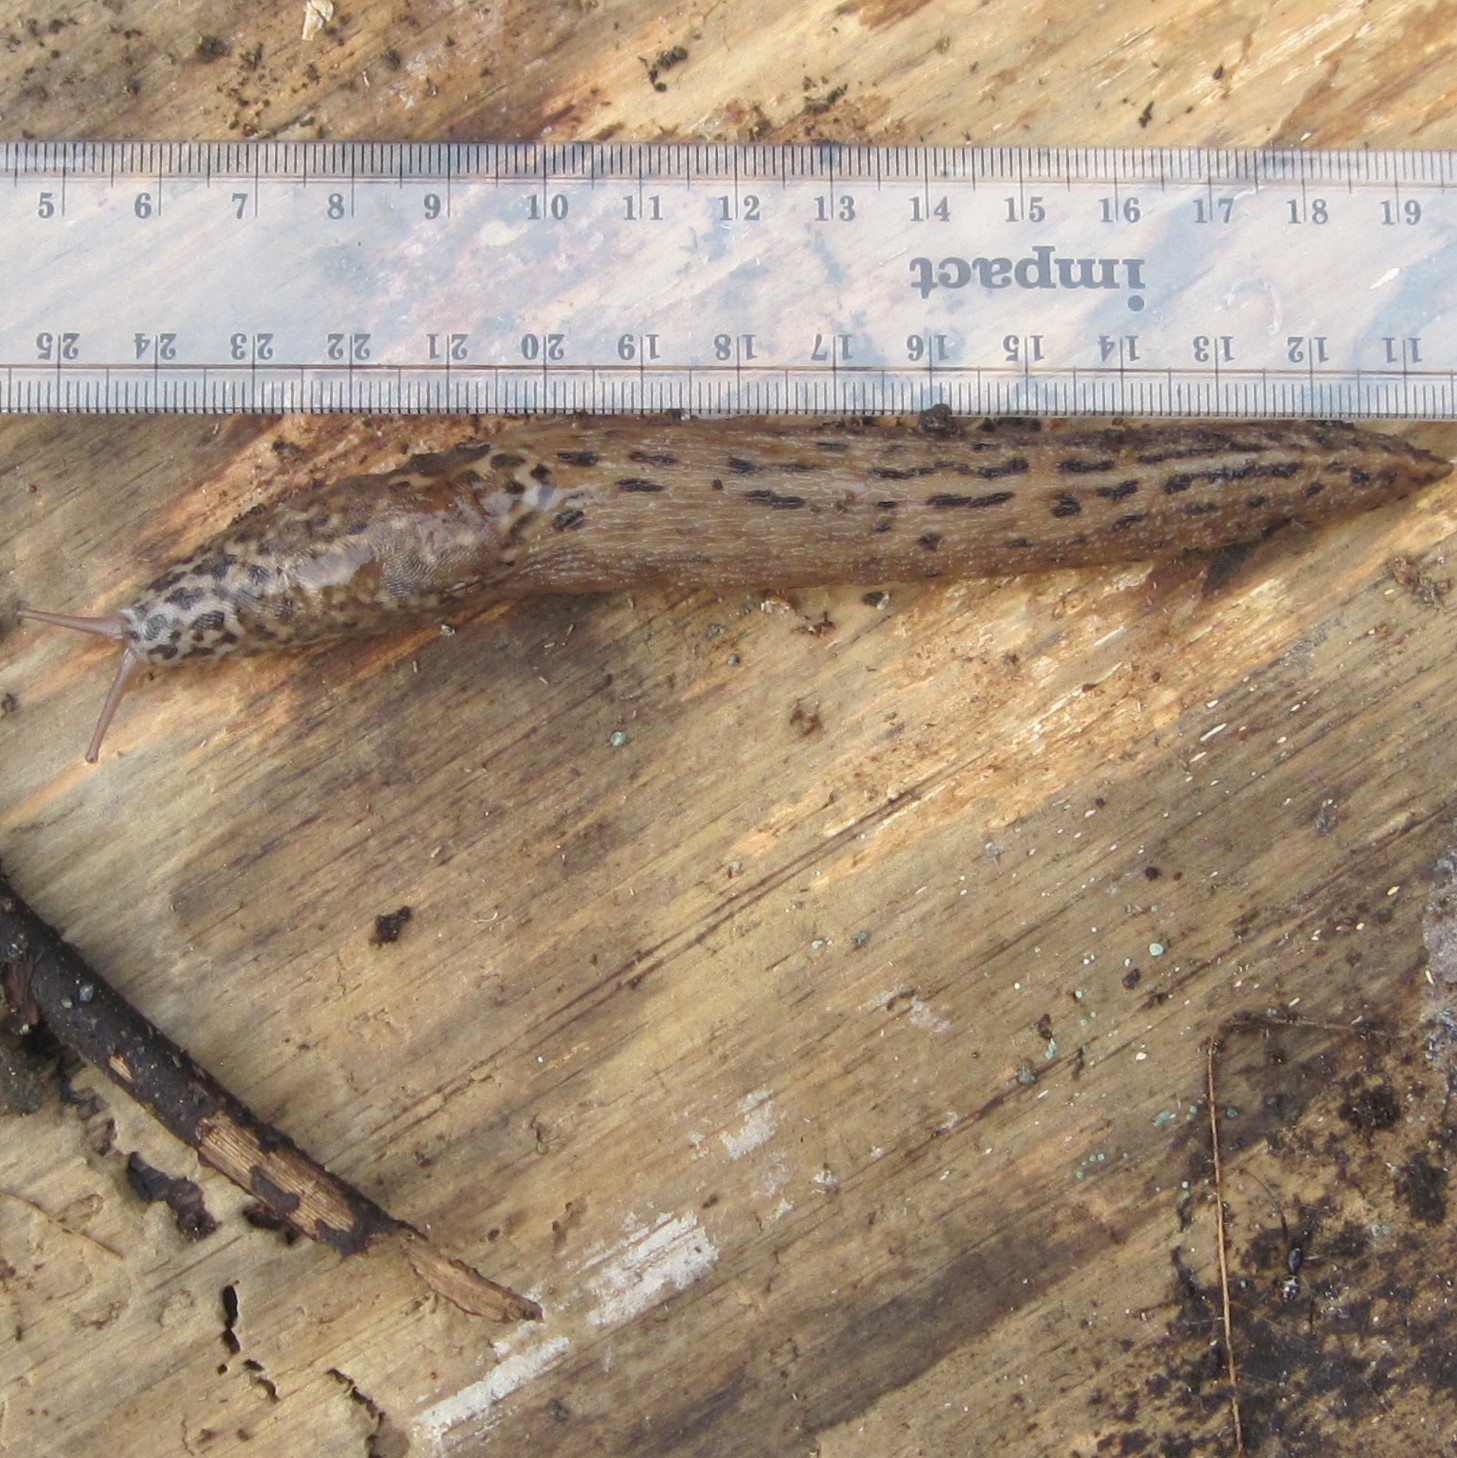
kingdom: Animalia
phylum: Mollusca
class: Gastropoda
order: Stylommatophora
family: Limacidae
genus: Limax
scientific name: Limax maximus
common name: Great grey slug
